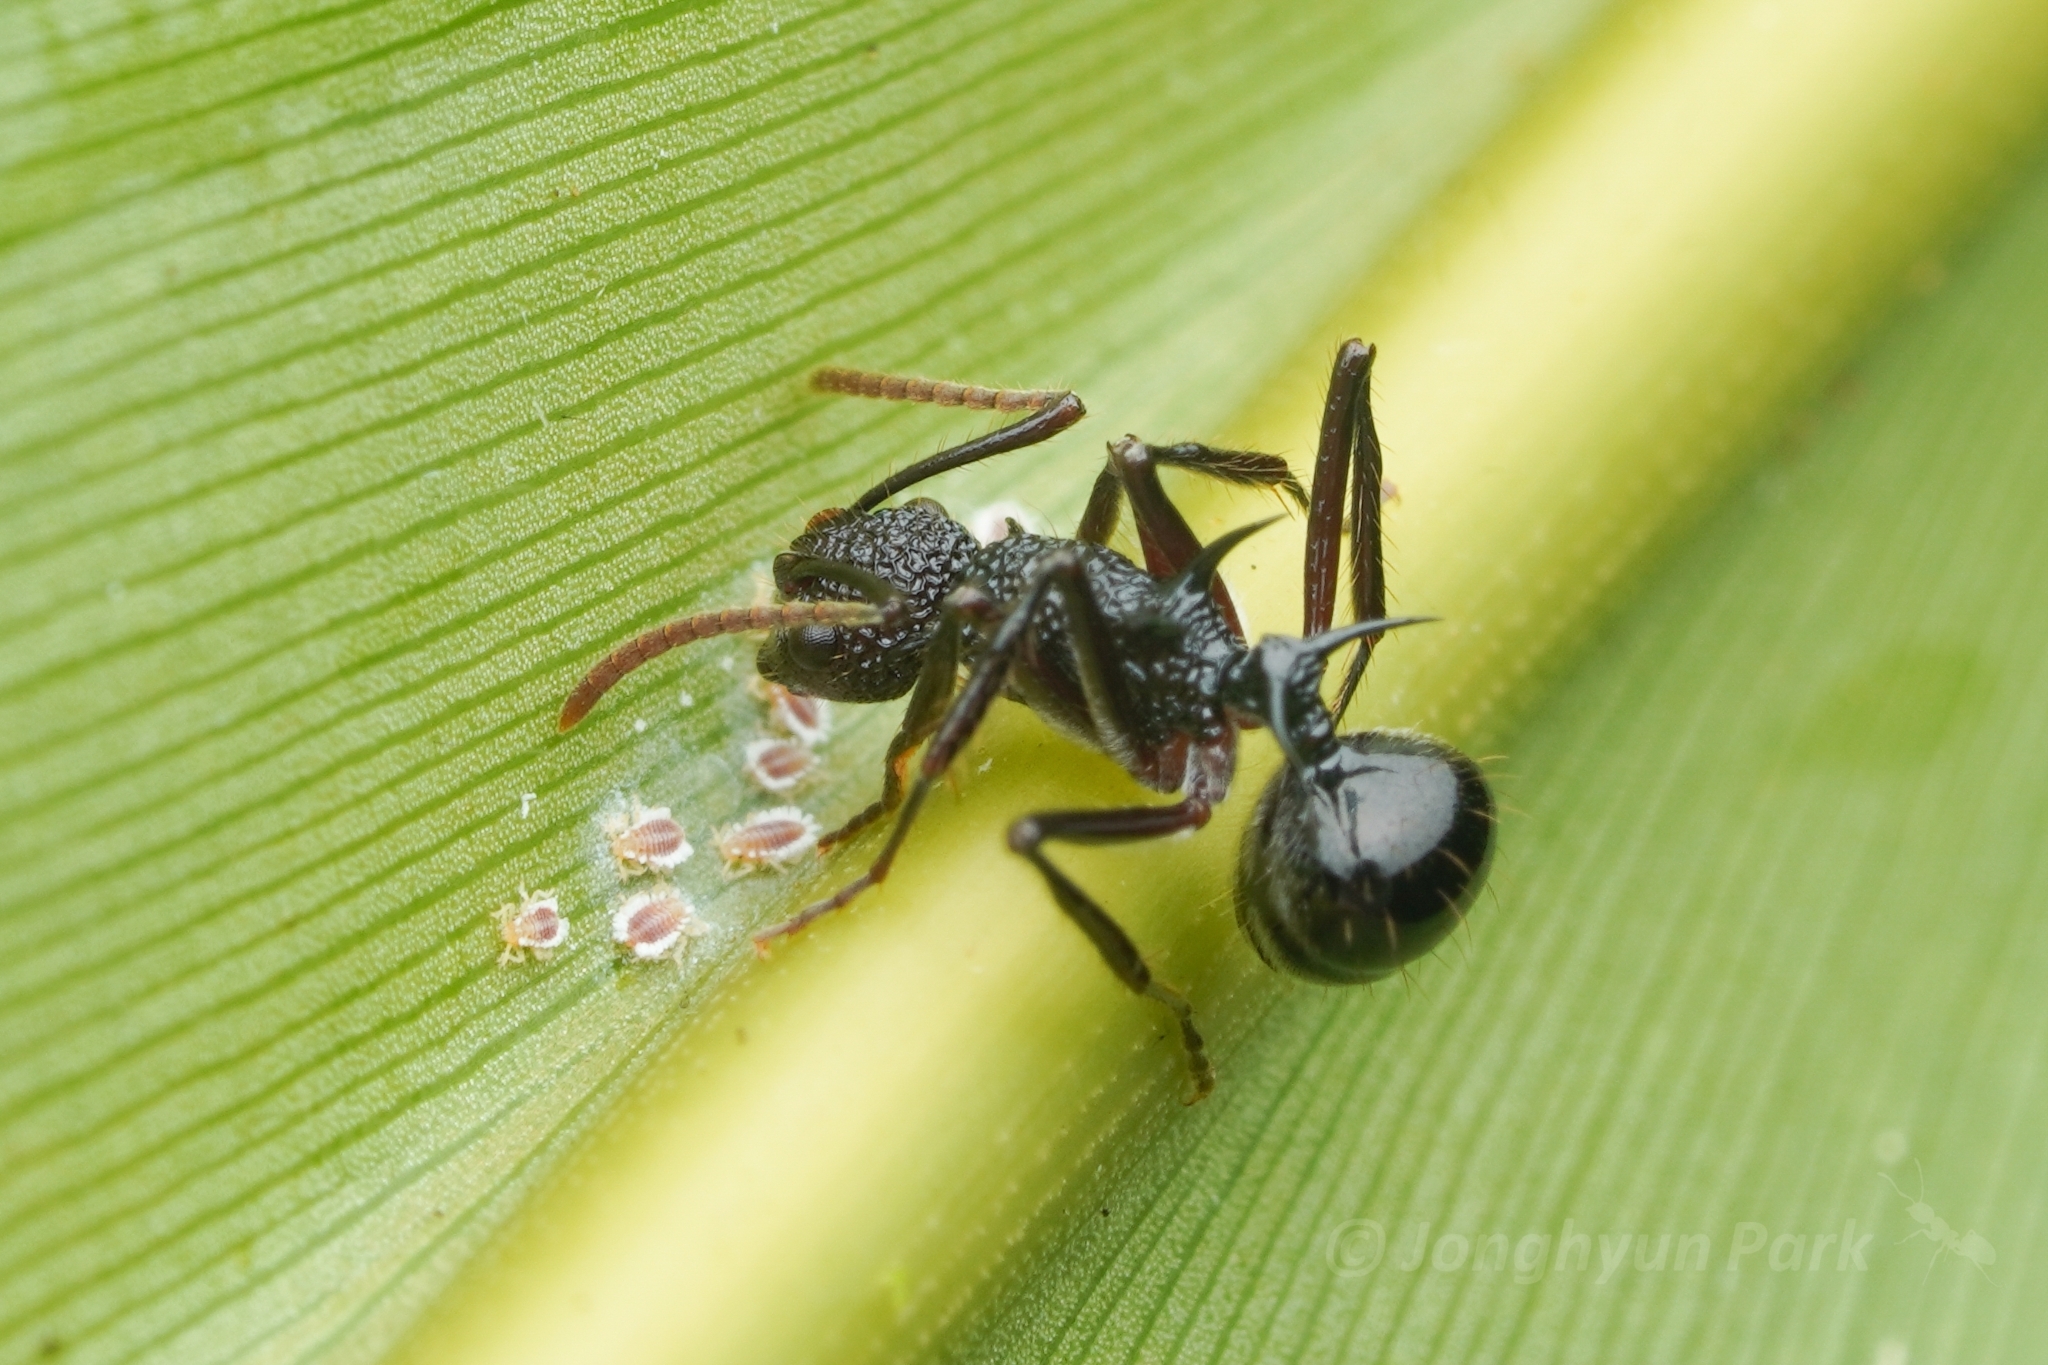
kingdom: Animalia
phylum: Arthropoda
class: Insecta
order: Hymenoptera
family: Formicidae
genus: Polyrhachis
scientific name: Polyrhachis rufipes
